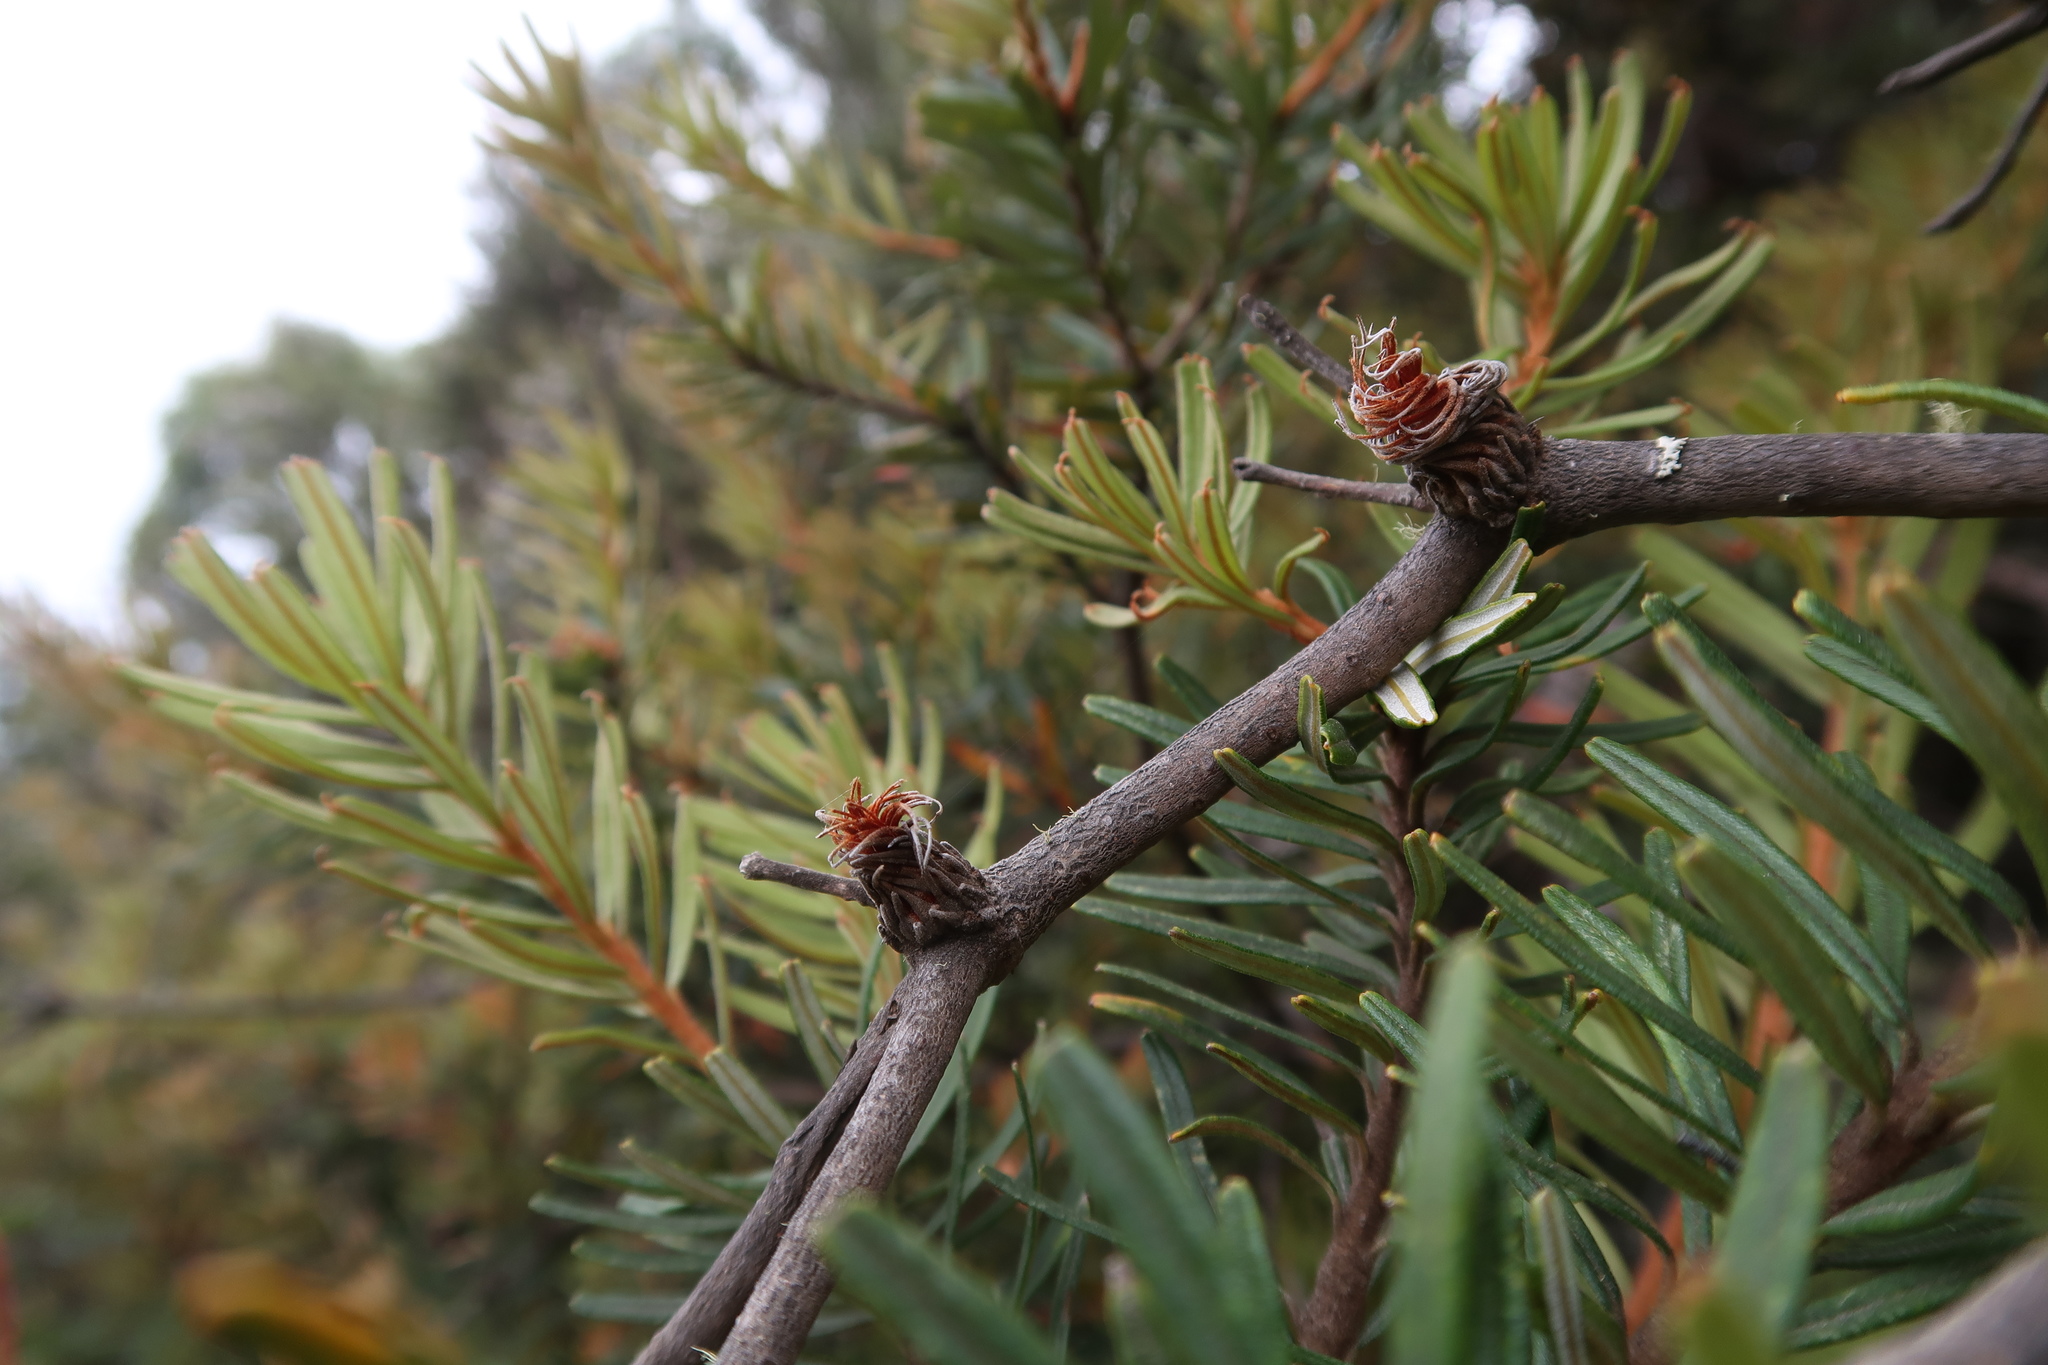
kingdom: Plantae
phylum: Tracheophyta
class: Magnoliopsida
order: Proteales
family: Proteaceae
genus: Banksia
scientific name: Banksia marginata
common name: Silver banksia
